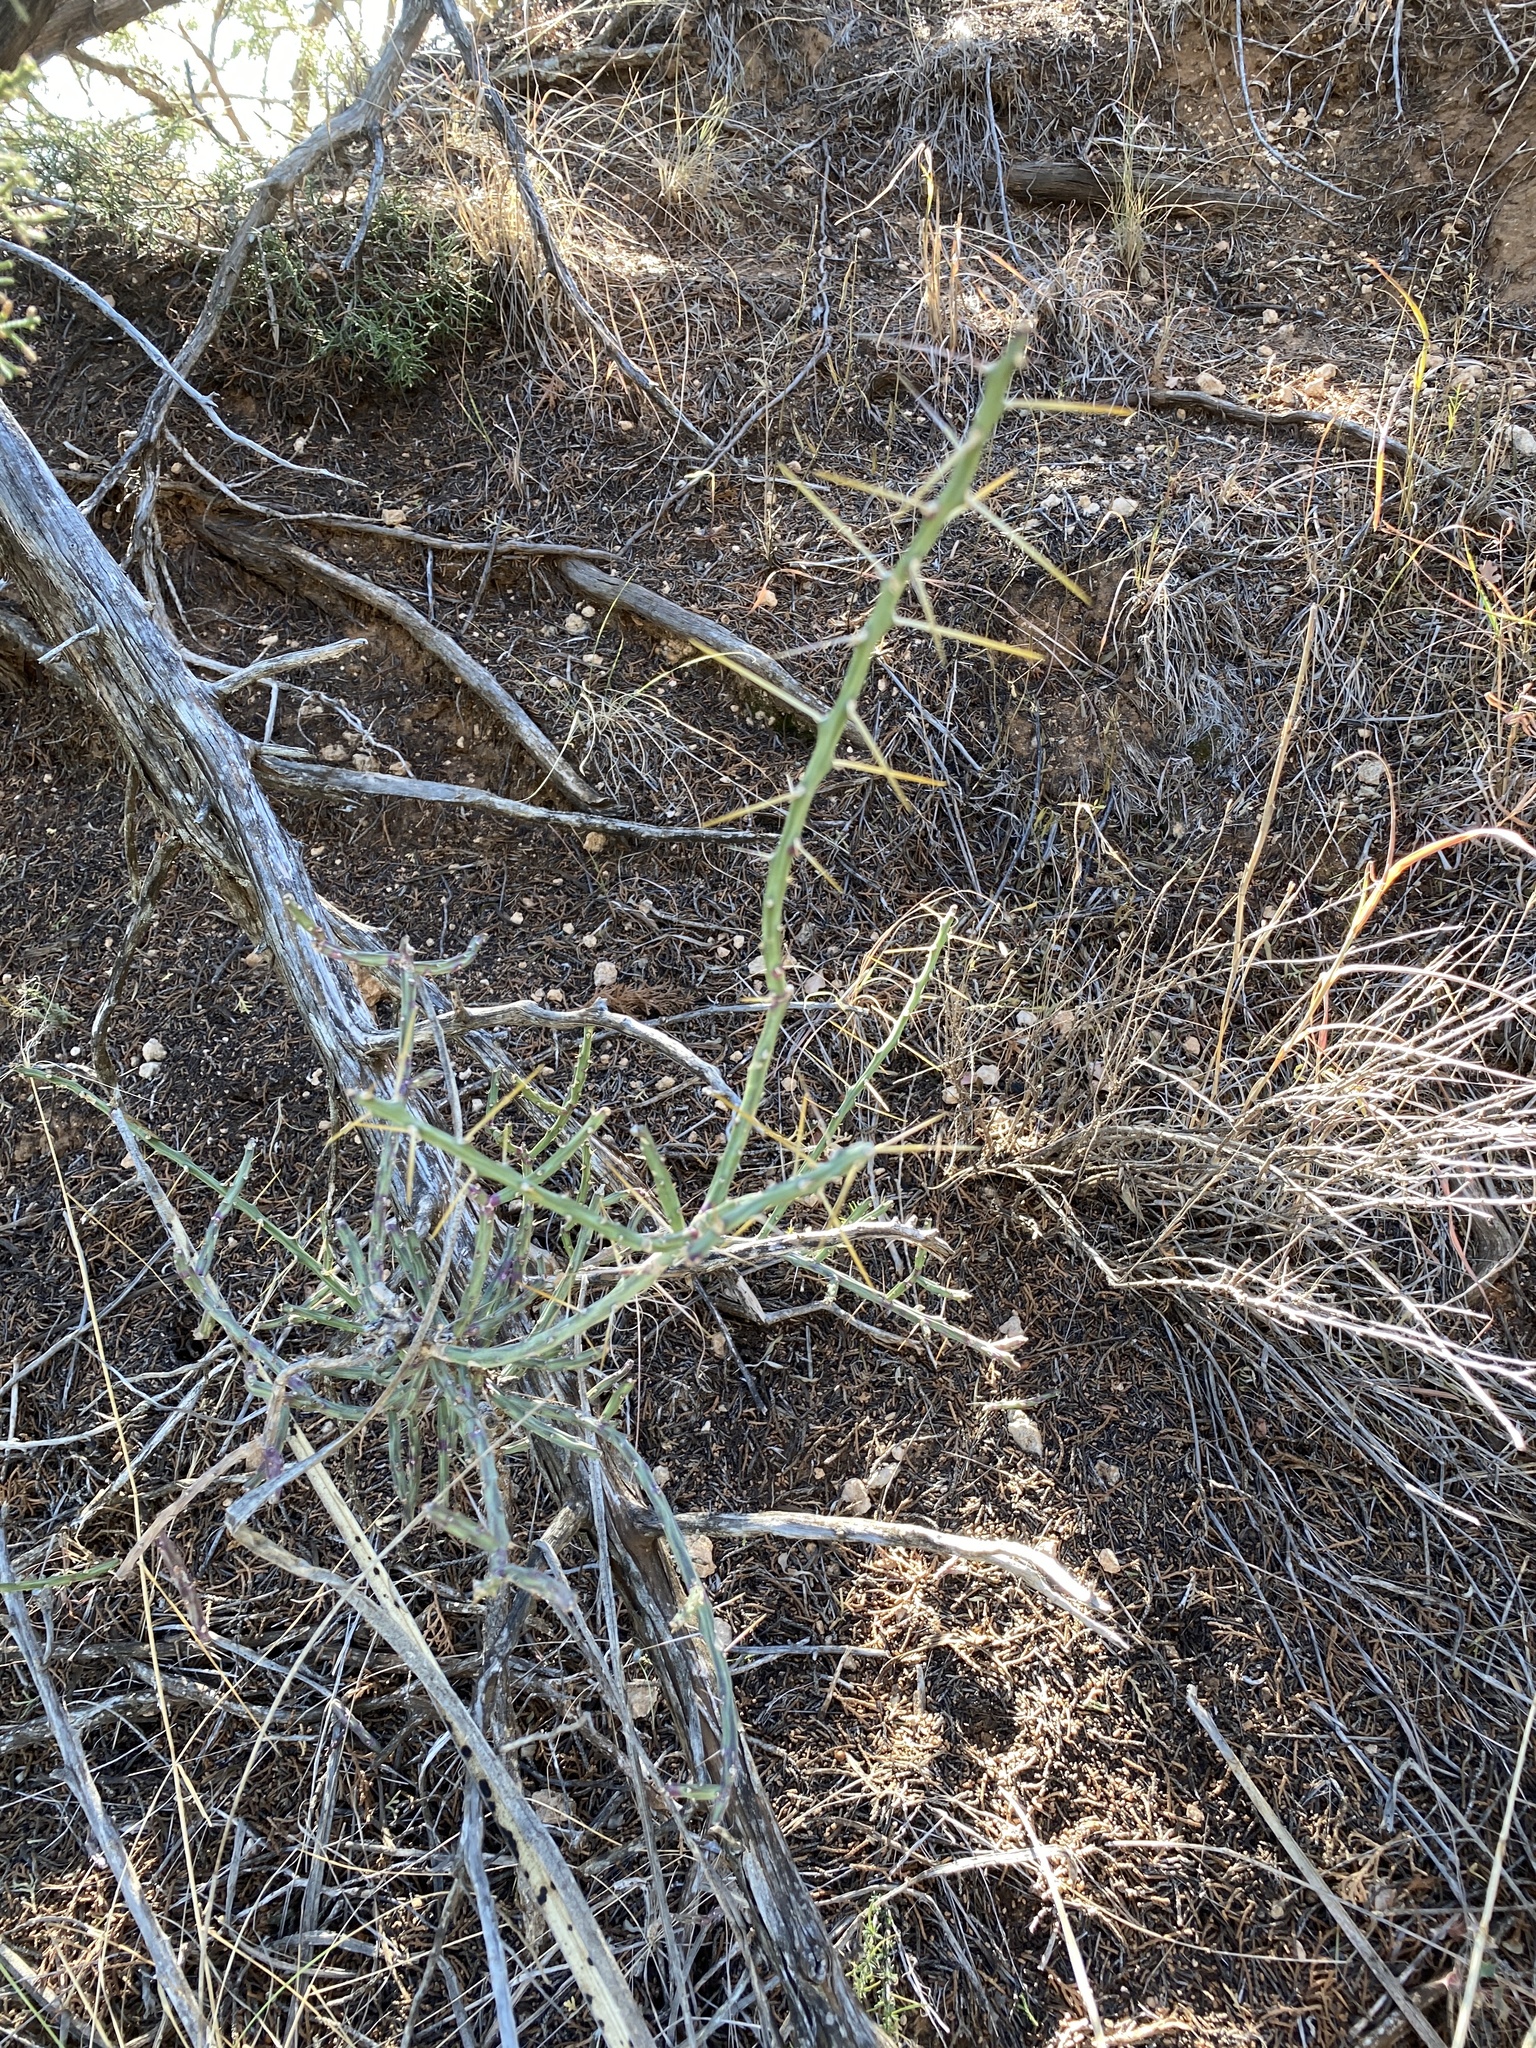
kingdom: Plantae
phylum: Tracheophyta
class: Magnoliopsida
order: Caryophyllales
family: Cactaceae
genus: Cylindropuntia
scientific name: Cylindropuntia leptocaulis
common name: Christmas cactus
